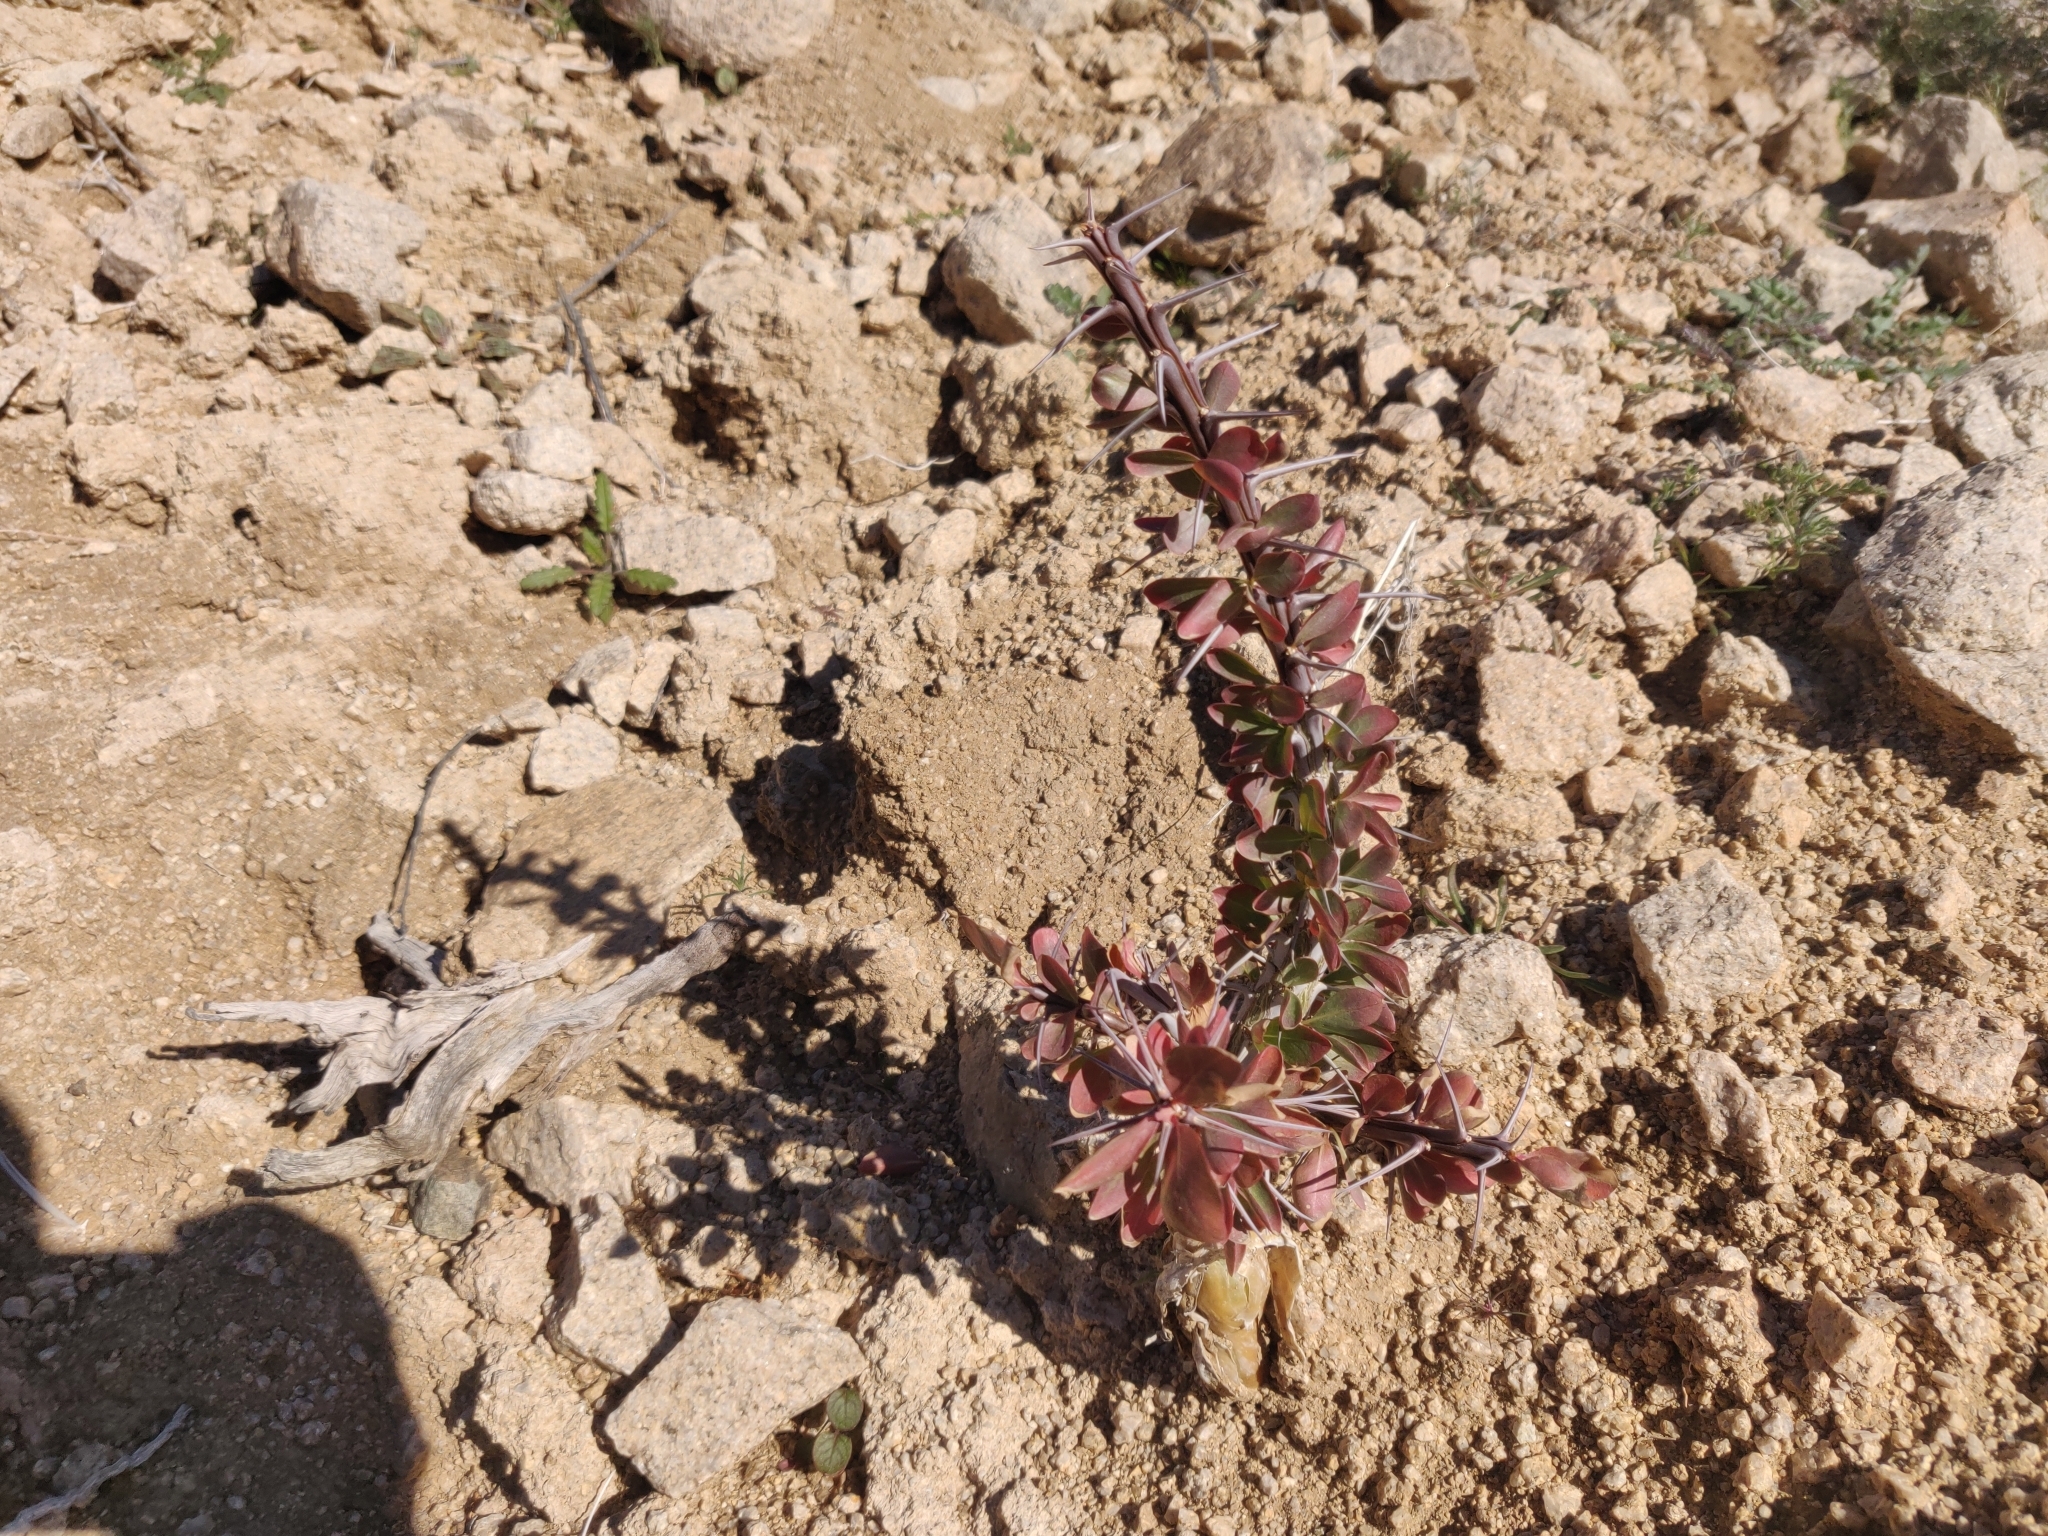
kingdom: Plantae
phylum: Tracheophyta
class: Magnoliopsida
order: Ericales
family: Fouquieriaceae
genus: Fouquieria
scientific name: Fouquieria splendens
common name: Vine-cactus
